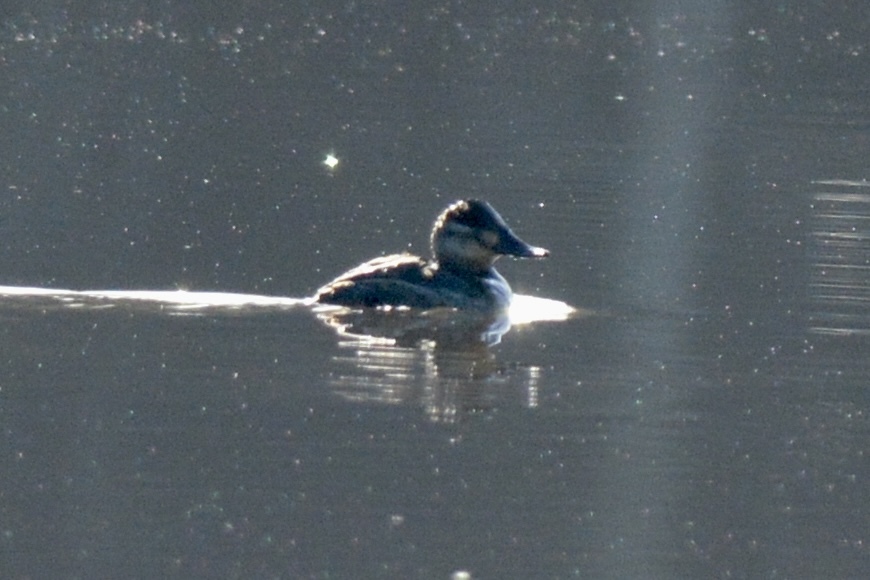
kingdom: Animalia
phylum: Chordata
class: Aves
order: Anseriformes
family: Anatidae
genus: Oxyura
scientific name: Oxyura jamaicensis
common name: Ruddy duck
